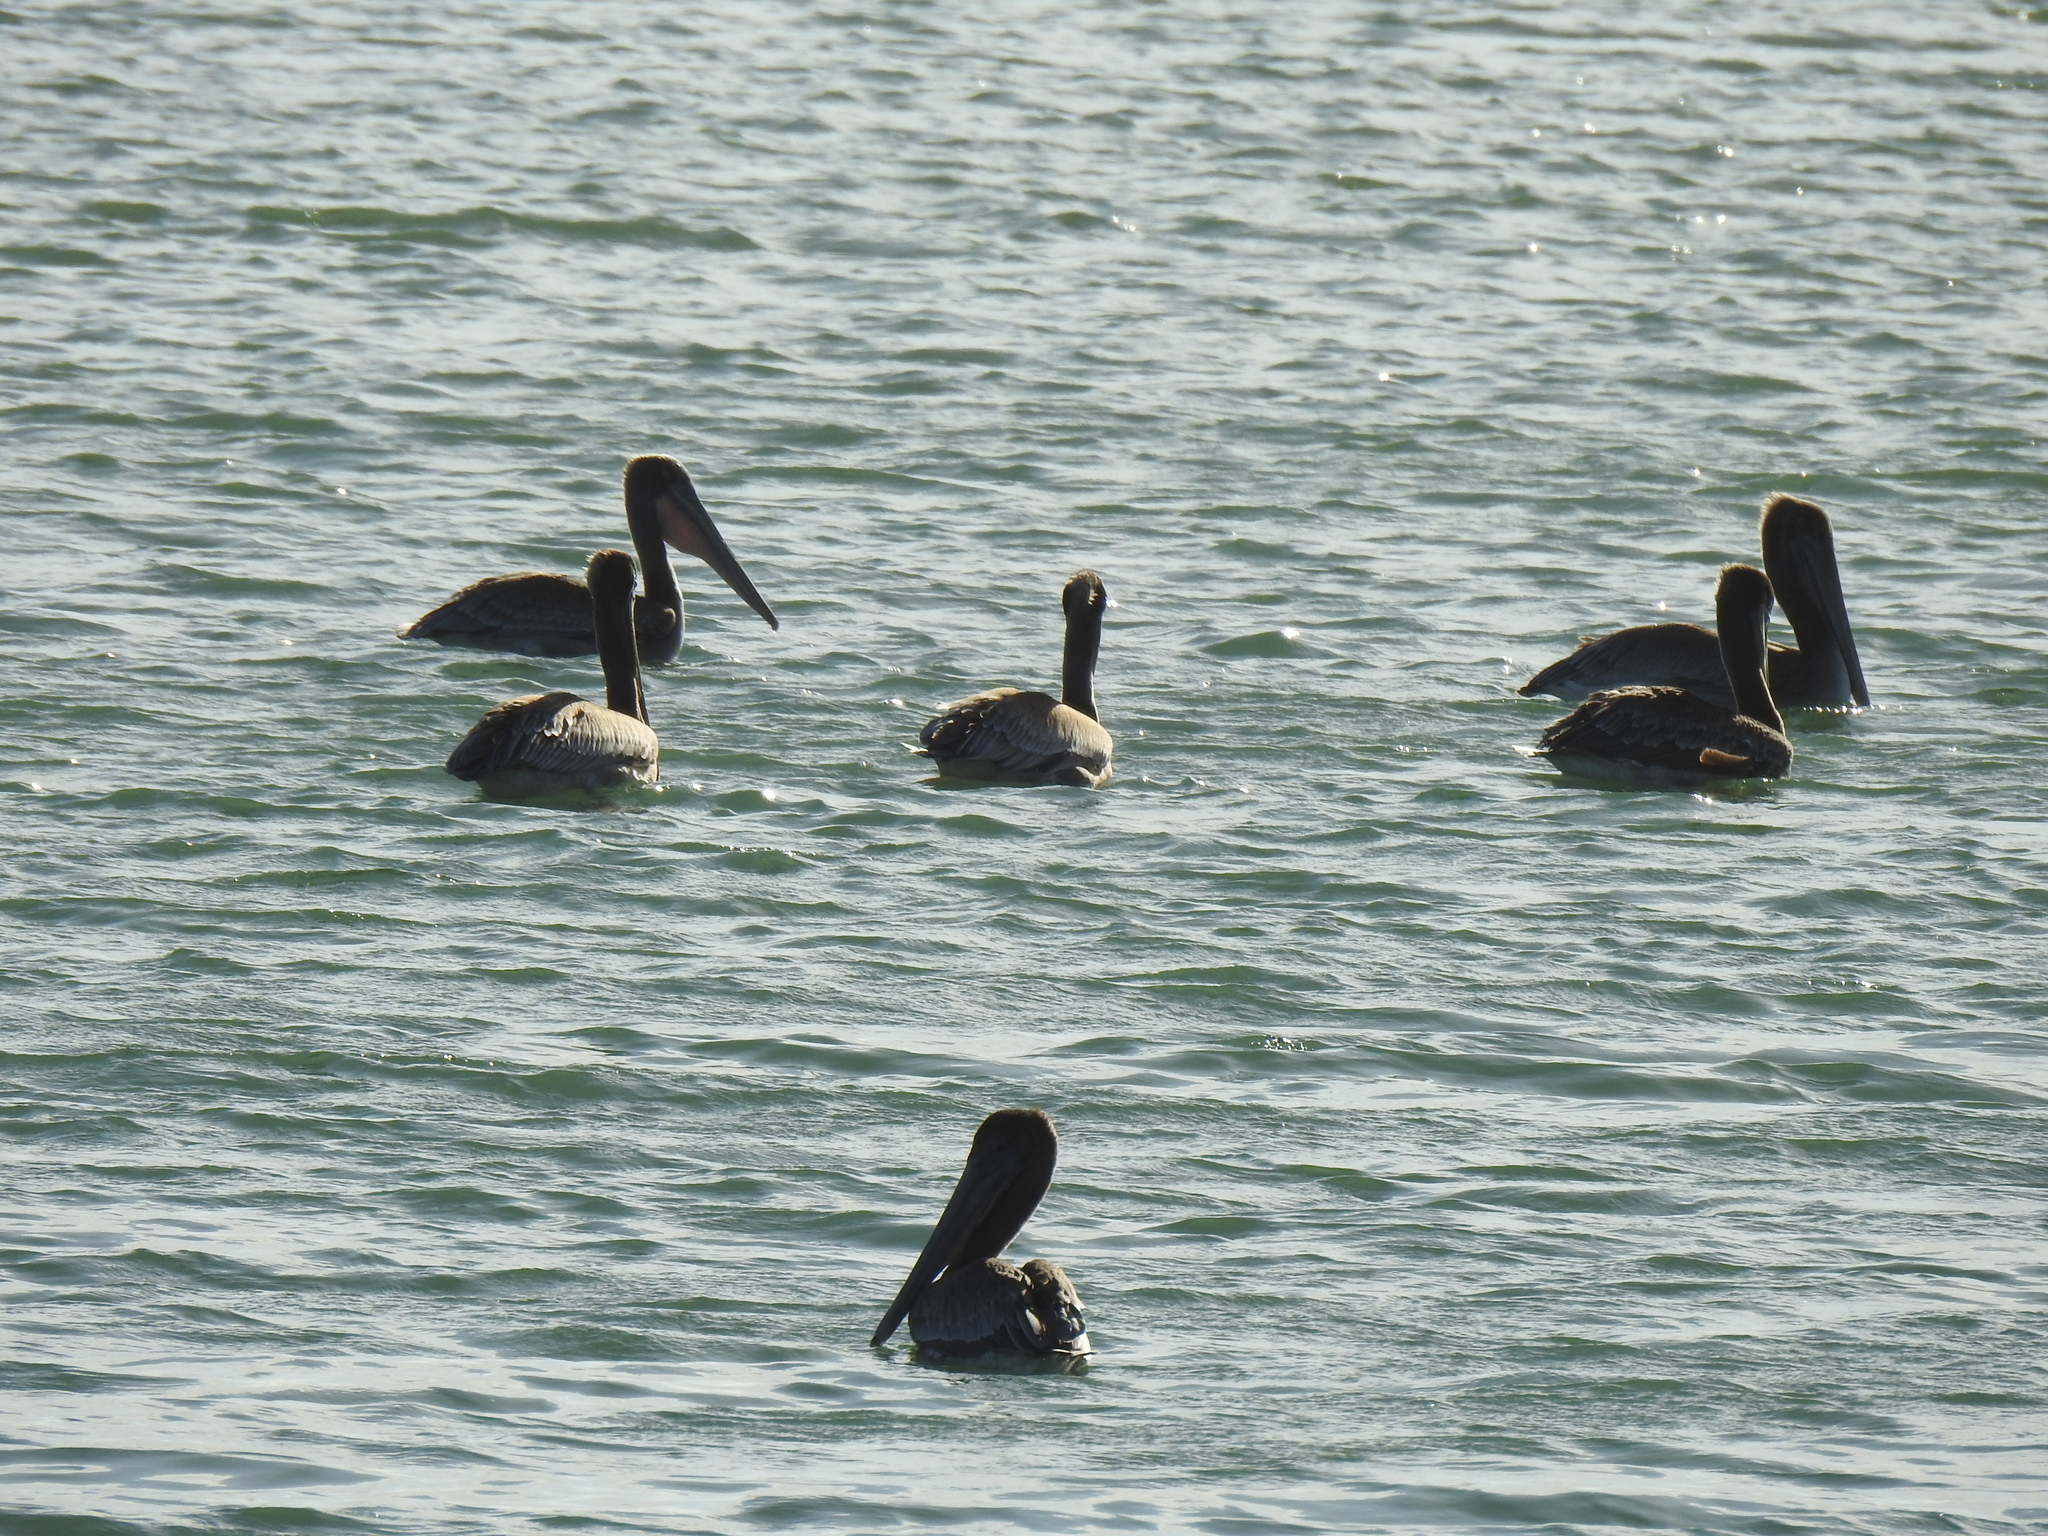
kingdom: Animalia
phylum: Chordata
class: Aves
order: Pelecaniformes
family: Pelecanidae
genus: Pelecanus
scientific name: Pelecanus occidentalis
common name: Brown pelican
